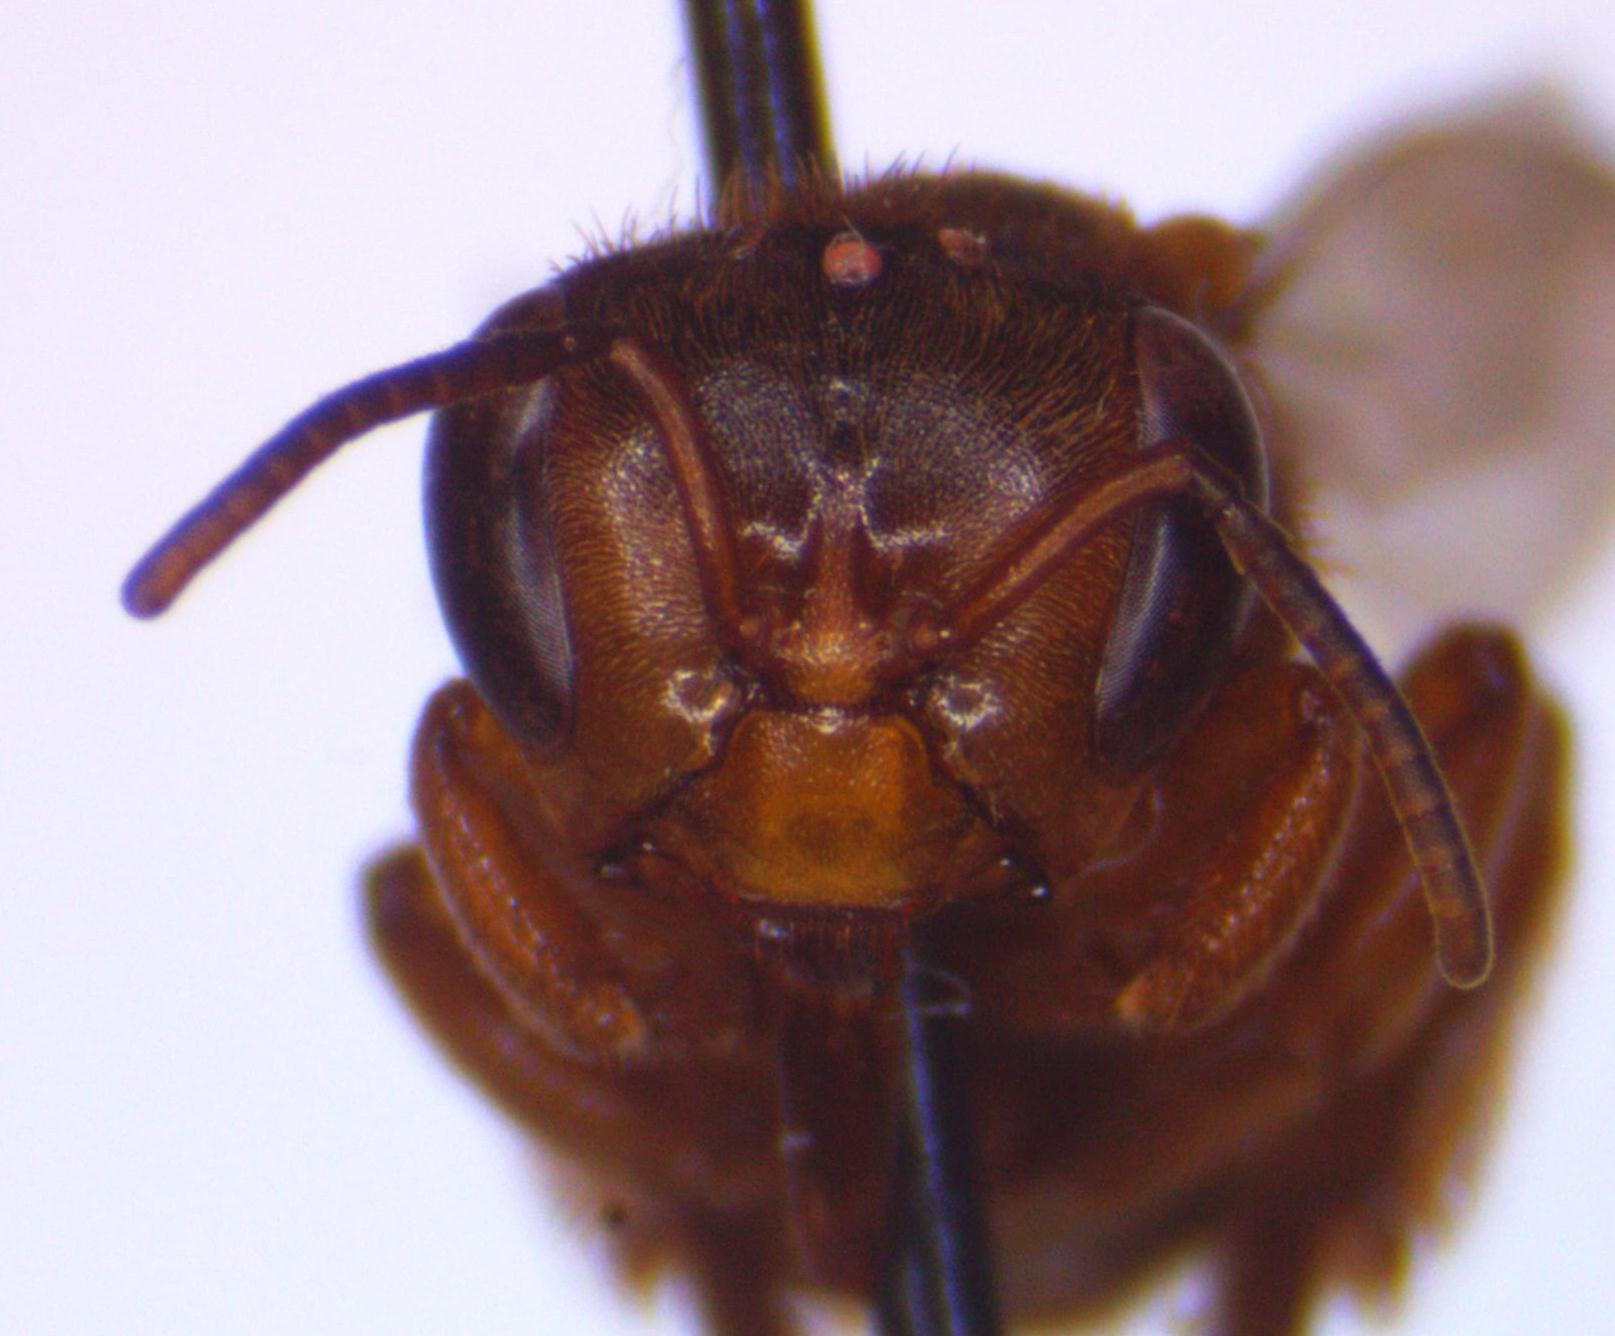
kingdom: Animalia
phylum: Arthropoda
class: Insecta
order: Hymenoptera
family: Apidae
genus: Scaptotrigona
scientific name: Scaptotrigona pectoralis
